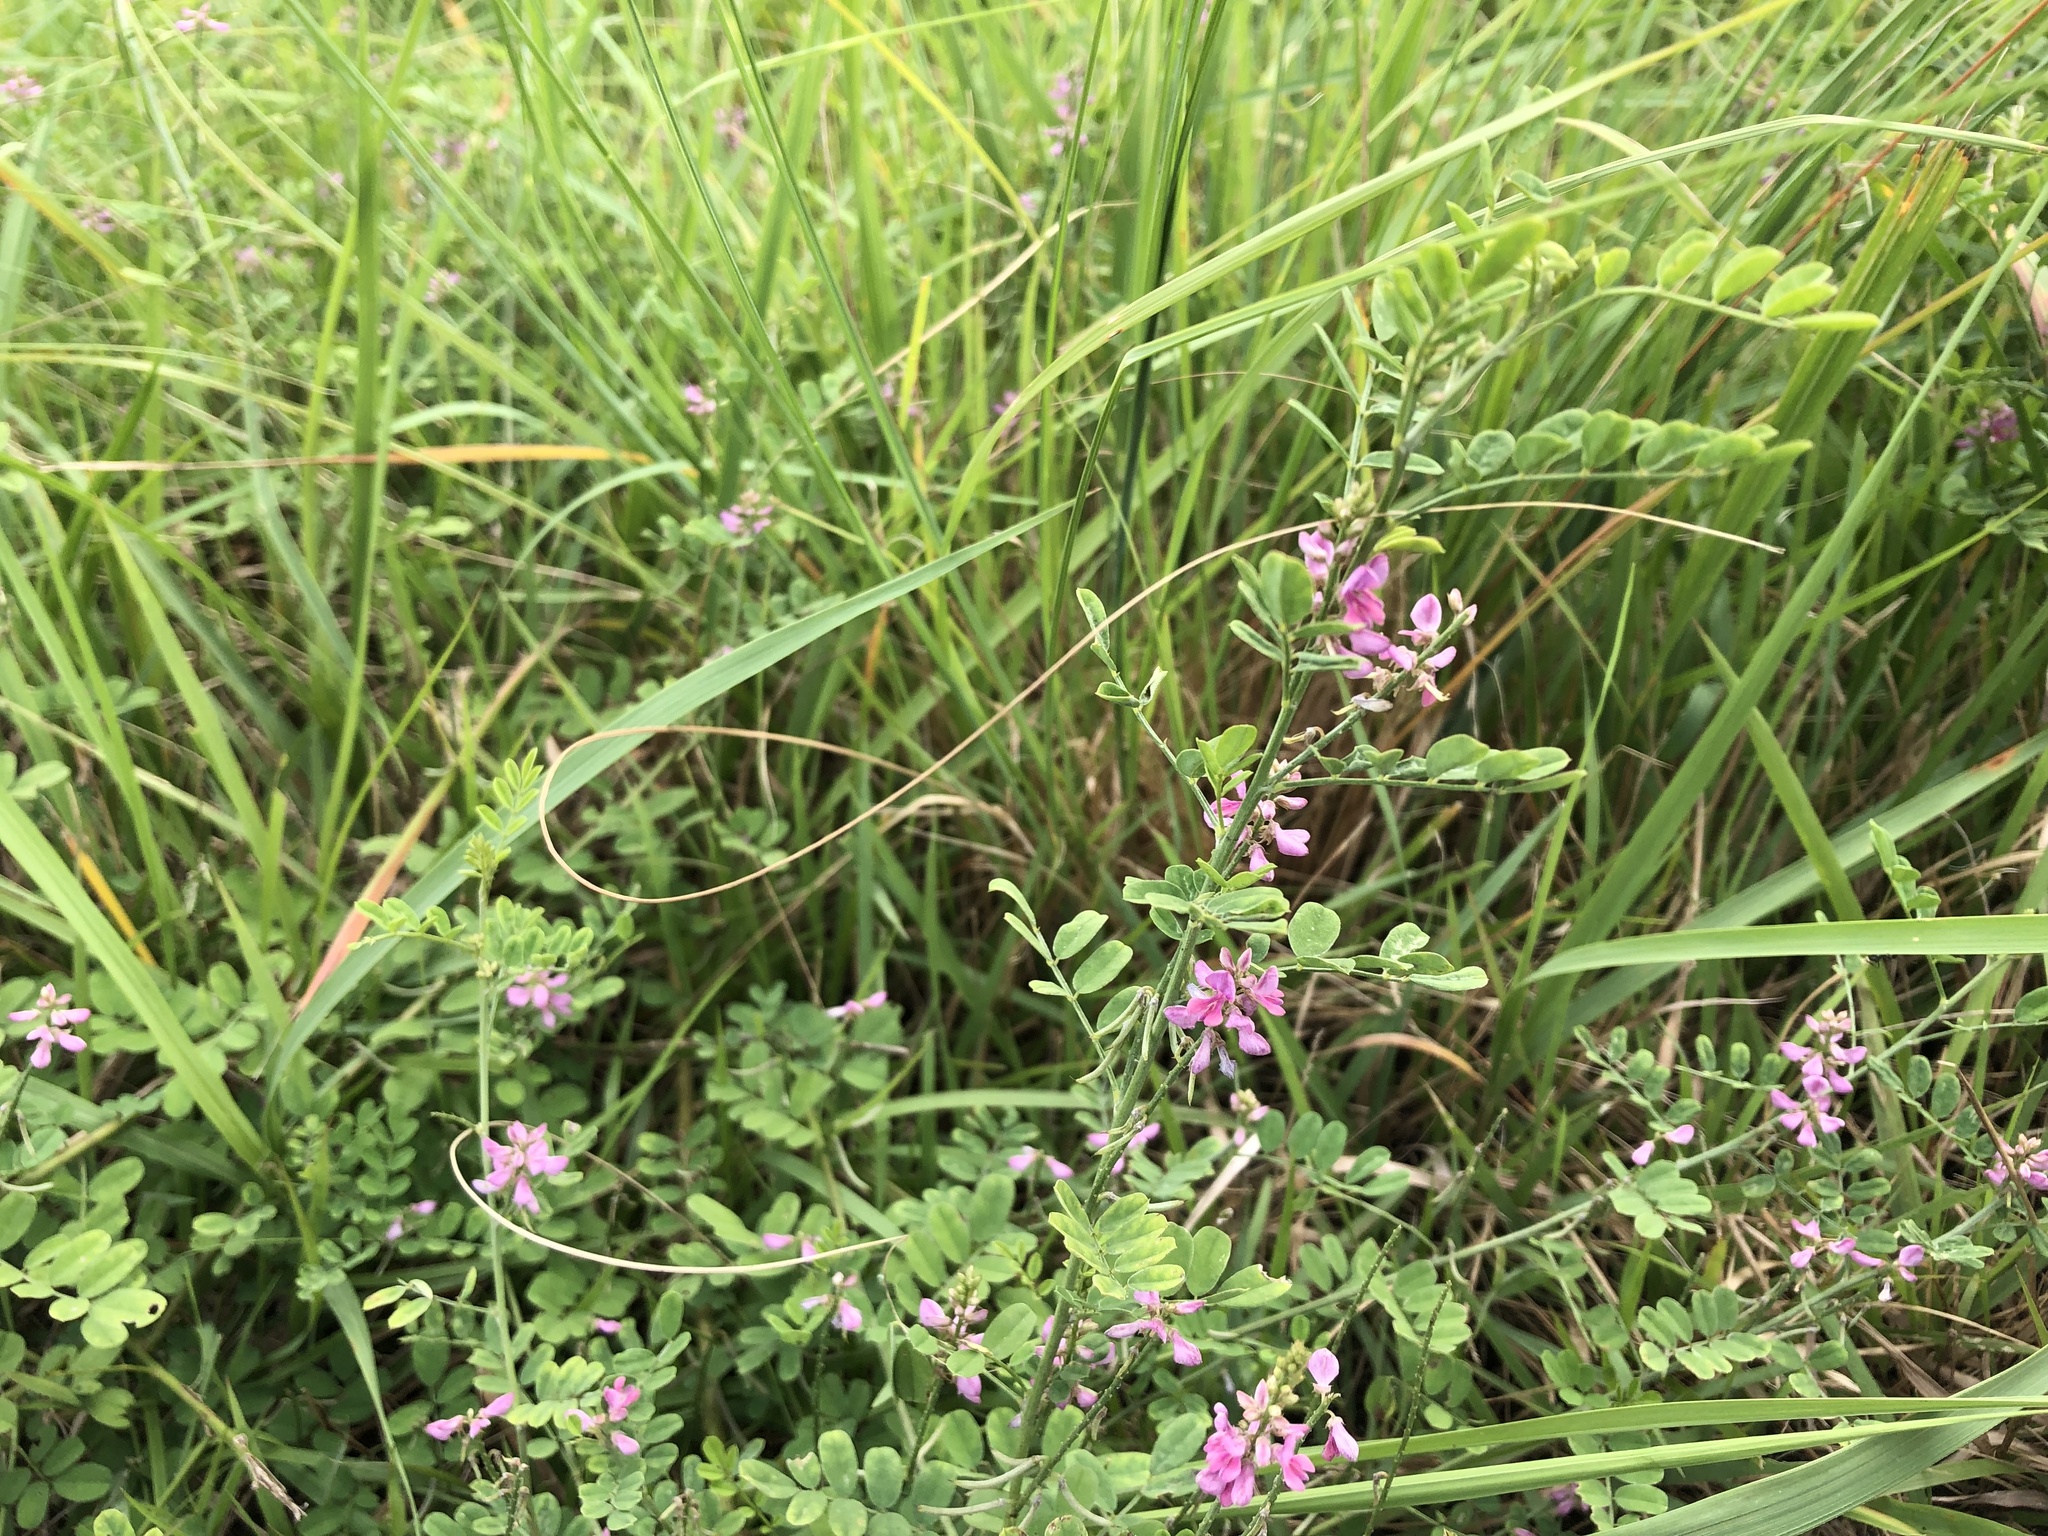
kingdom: Plantae
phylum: Tracheophyta
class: Magnoliopsida
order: Fabales
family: Fabaceae
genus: Indigofera
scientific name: Indigofera bungeana
